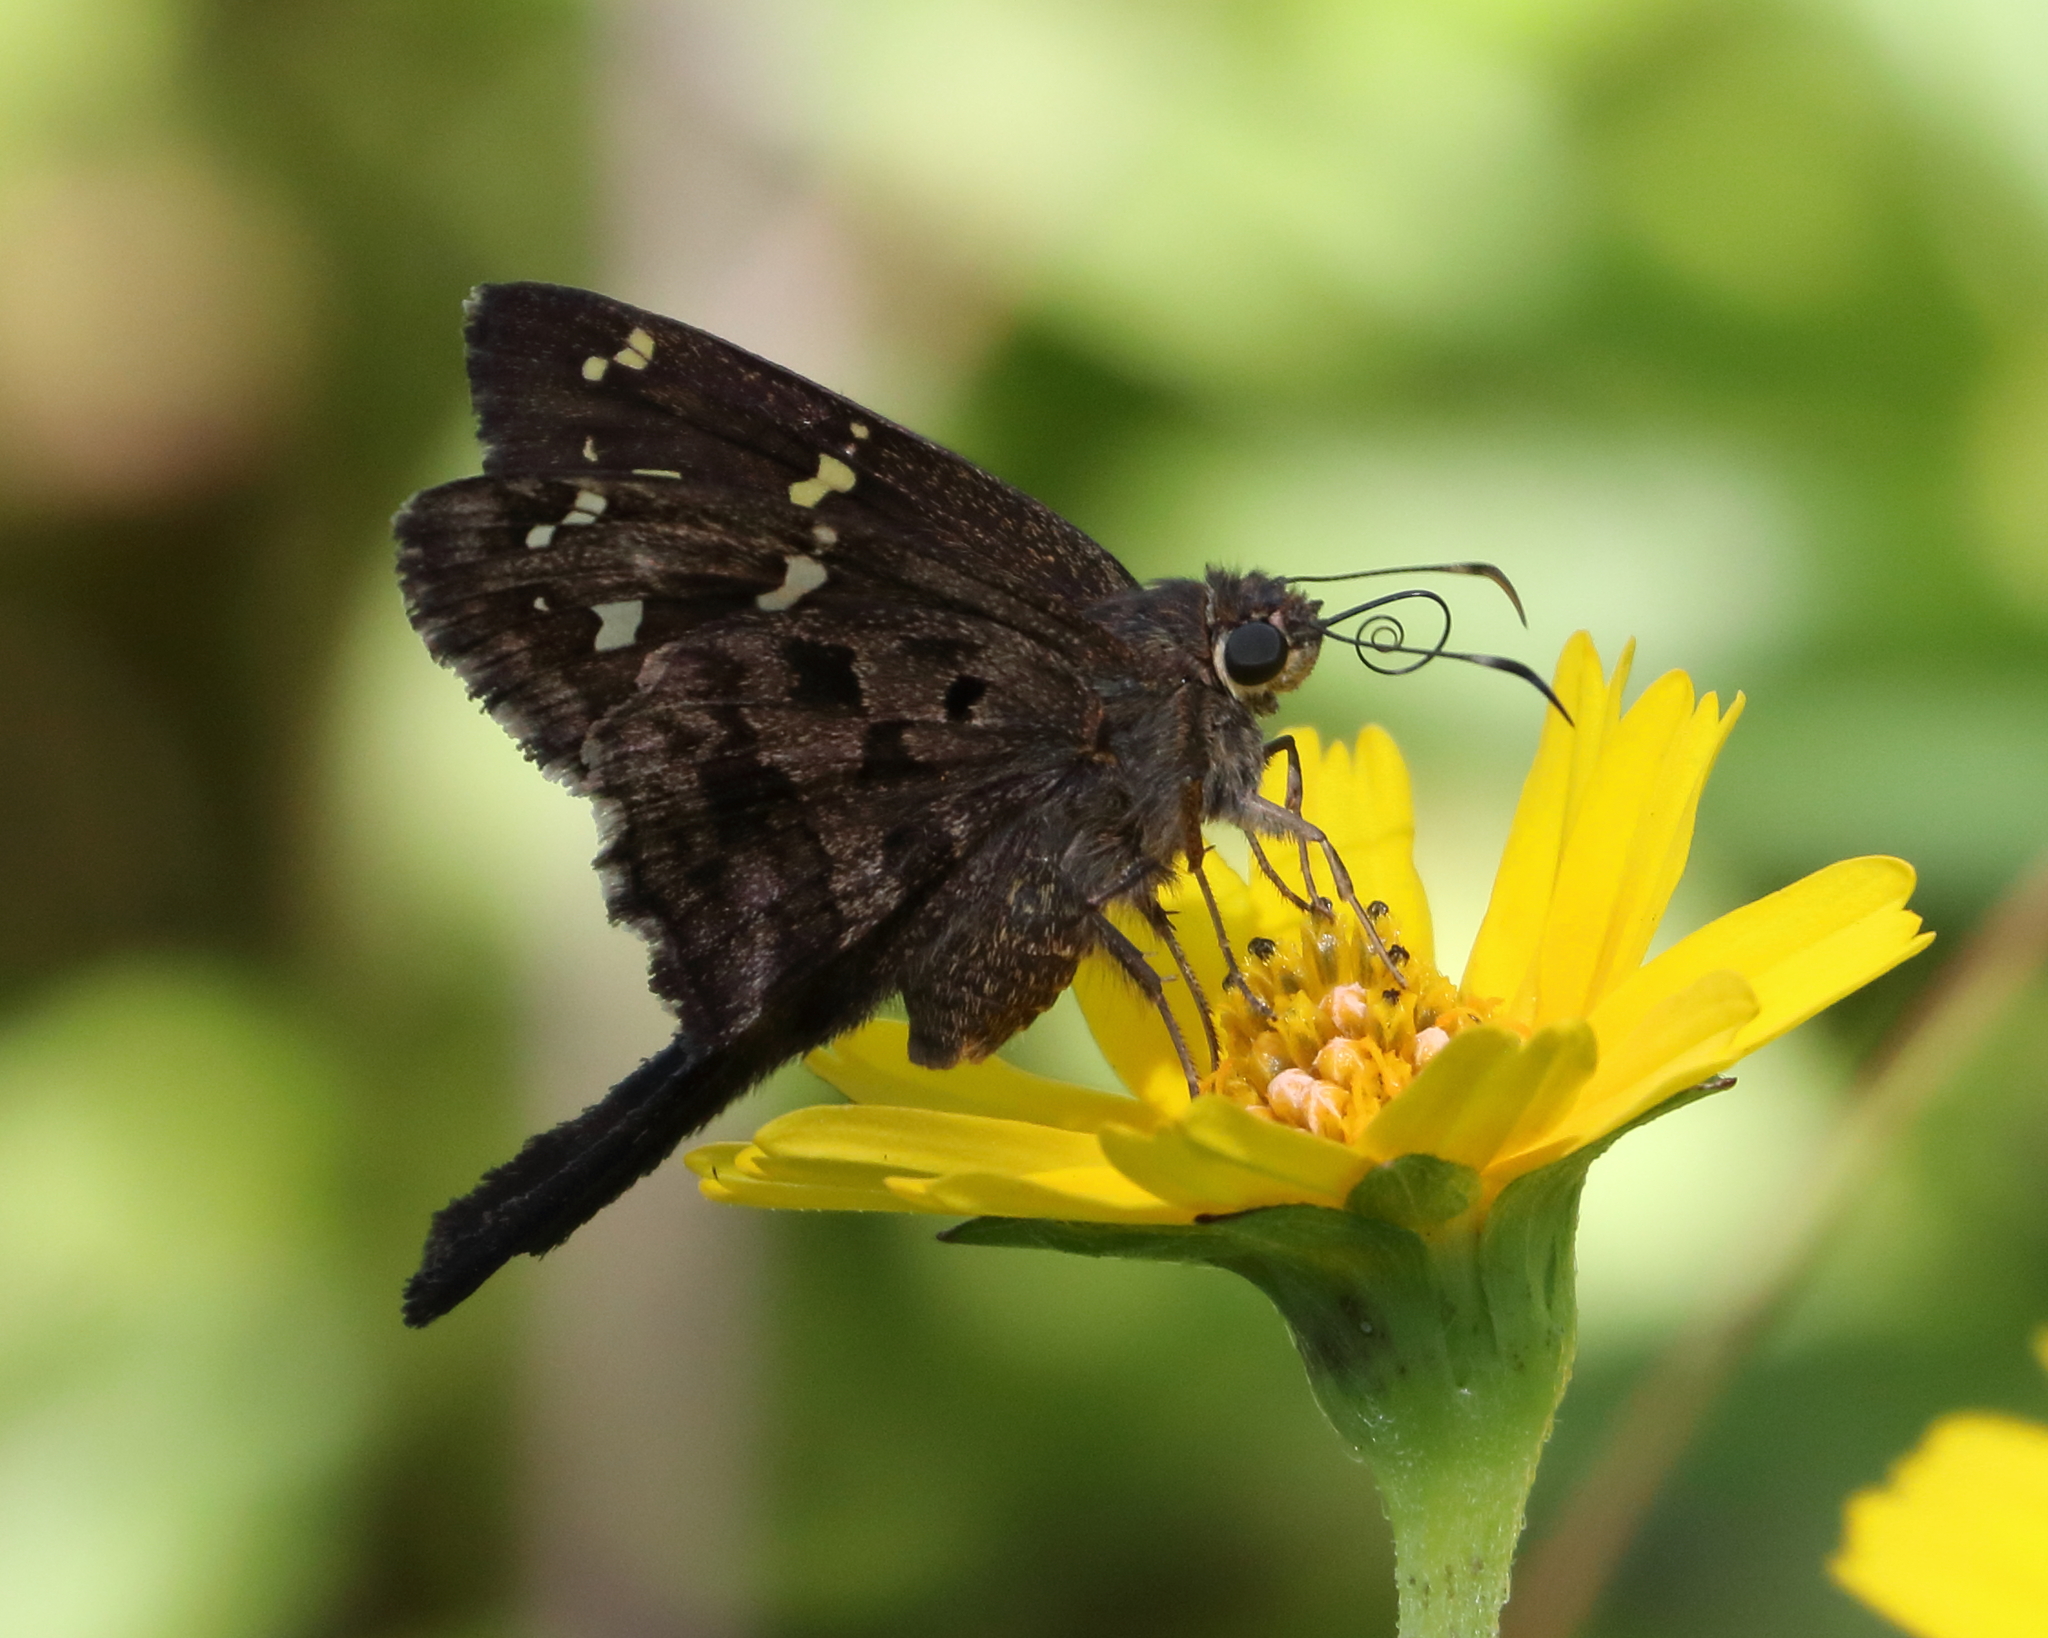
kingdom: Animalia
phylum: Arthropoda
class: Insecta
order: Lepidoptera
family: Hesperiidae
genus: Thorybes
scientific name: Thorybes
